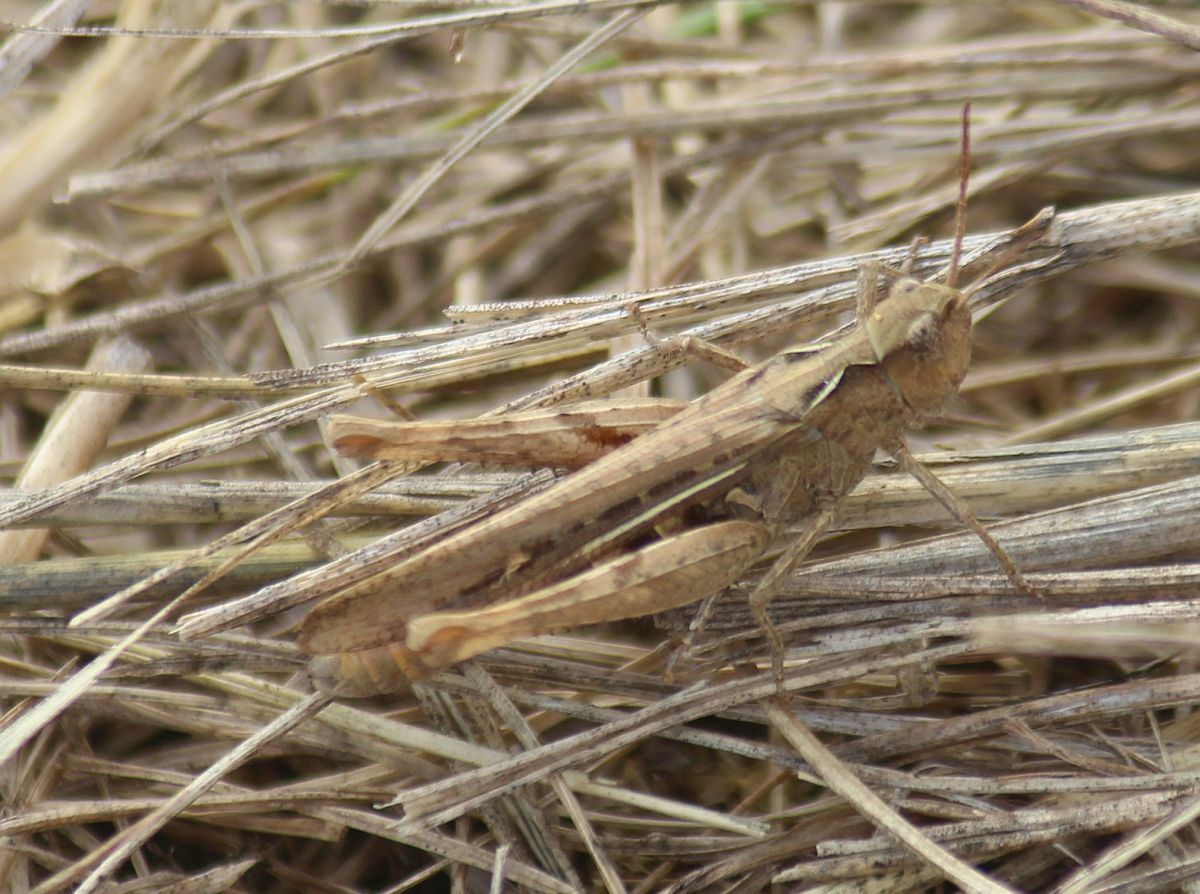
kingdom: Animalia
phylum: Arthropoda
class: Insecta
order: Orthoptera
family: Acrididae
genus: Chorthippus
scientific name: Chorthippus brunneus
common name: Field grasshopper
